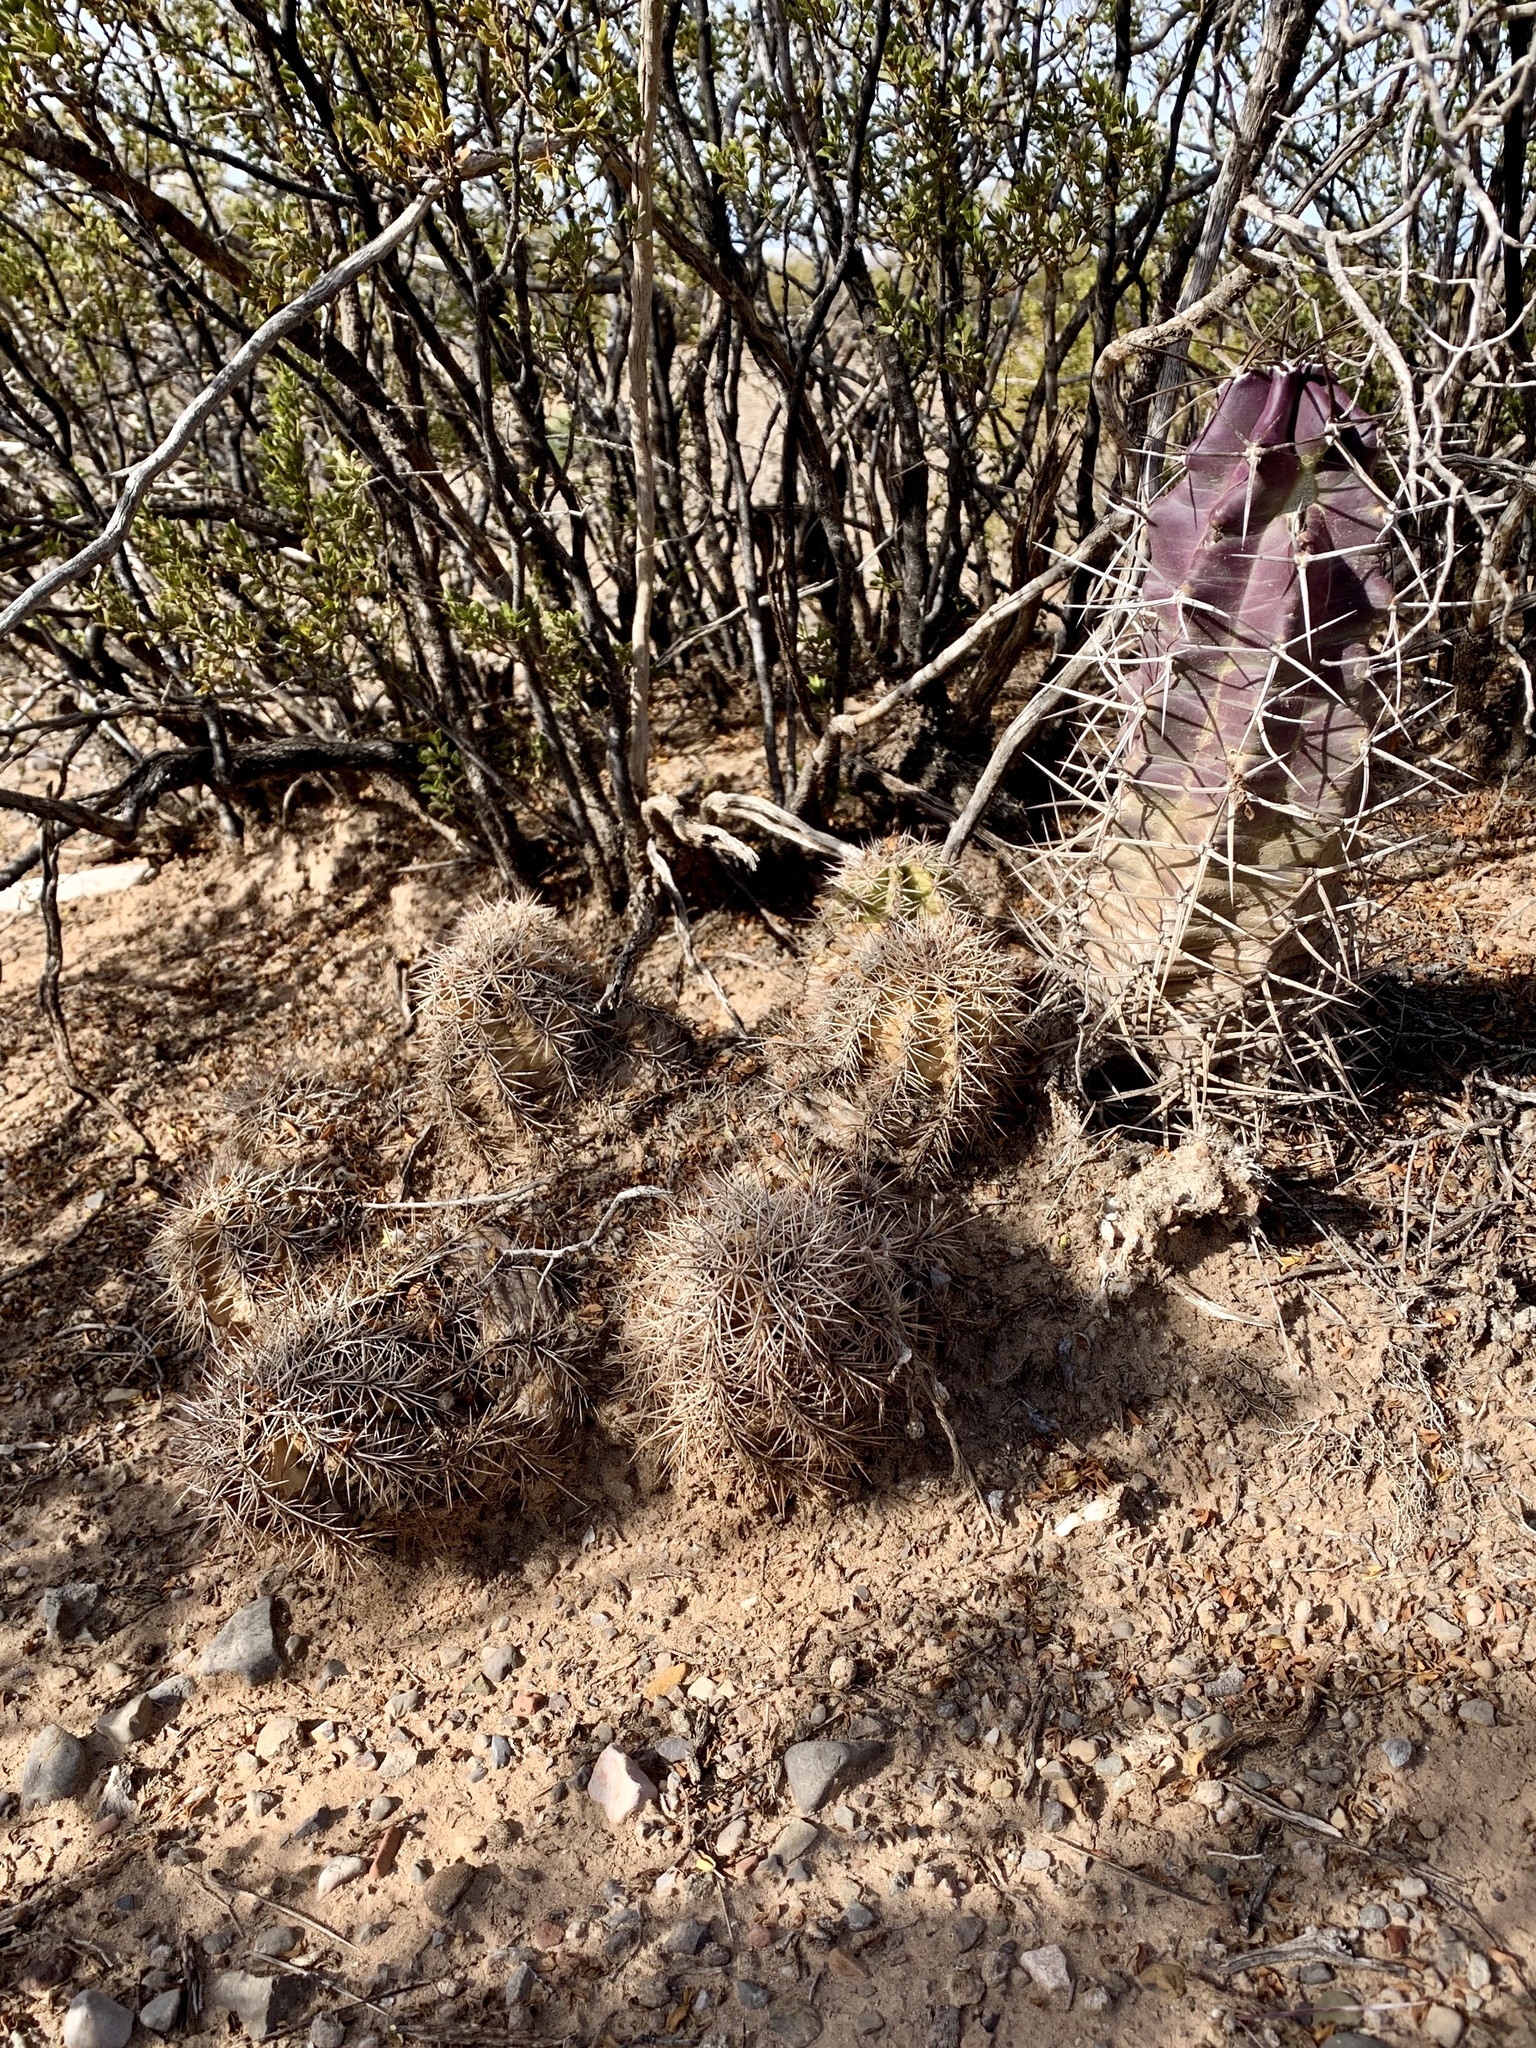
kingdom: Plantae
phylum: Tracheophyta
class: Magnoliopsida
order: Caryophyllales
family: Cactaceae
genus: Echinocereus
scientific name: Echinocereus coccineus
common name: Scarlet hedgehog cactus
